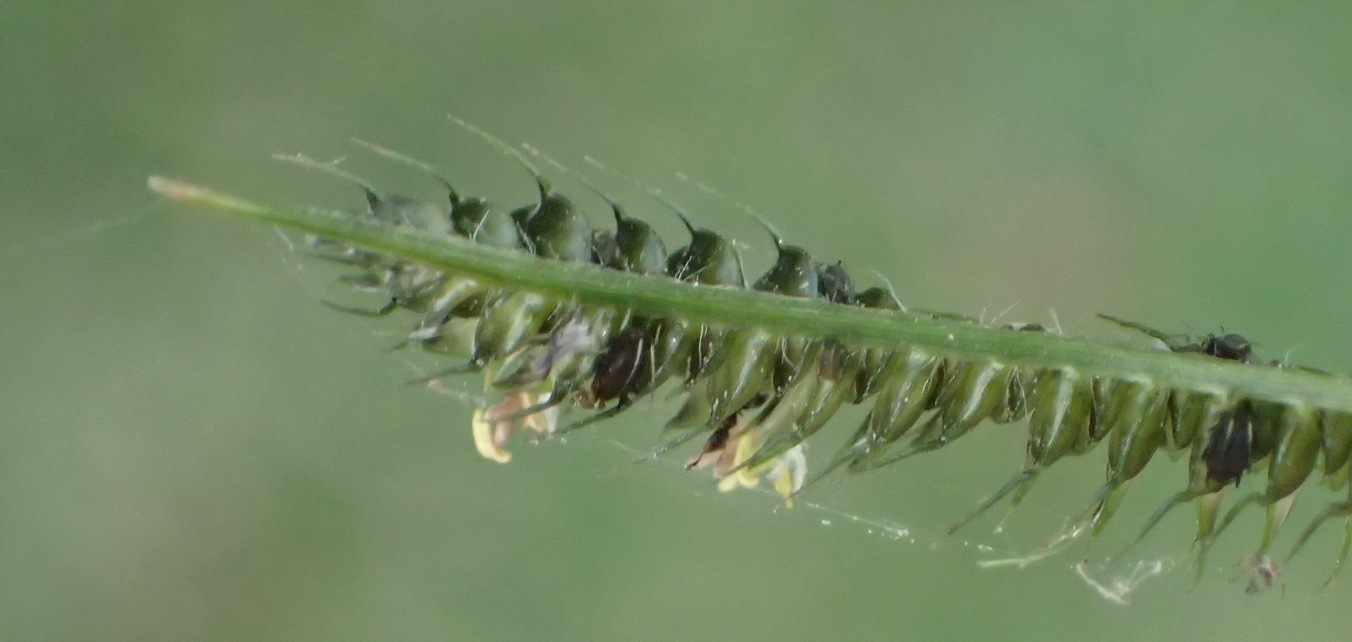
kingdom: Plantae
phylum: Tracheophyta
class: Liliopsida
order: Poales
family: Poaceae
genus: Dactyloctenium
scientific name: Dactyloctenium australe
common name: Durban grass
